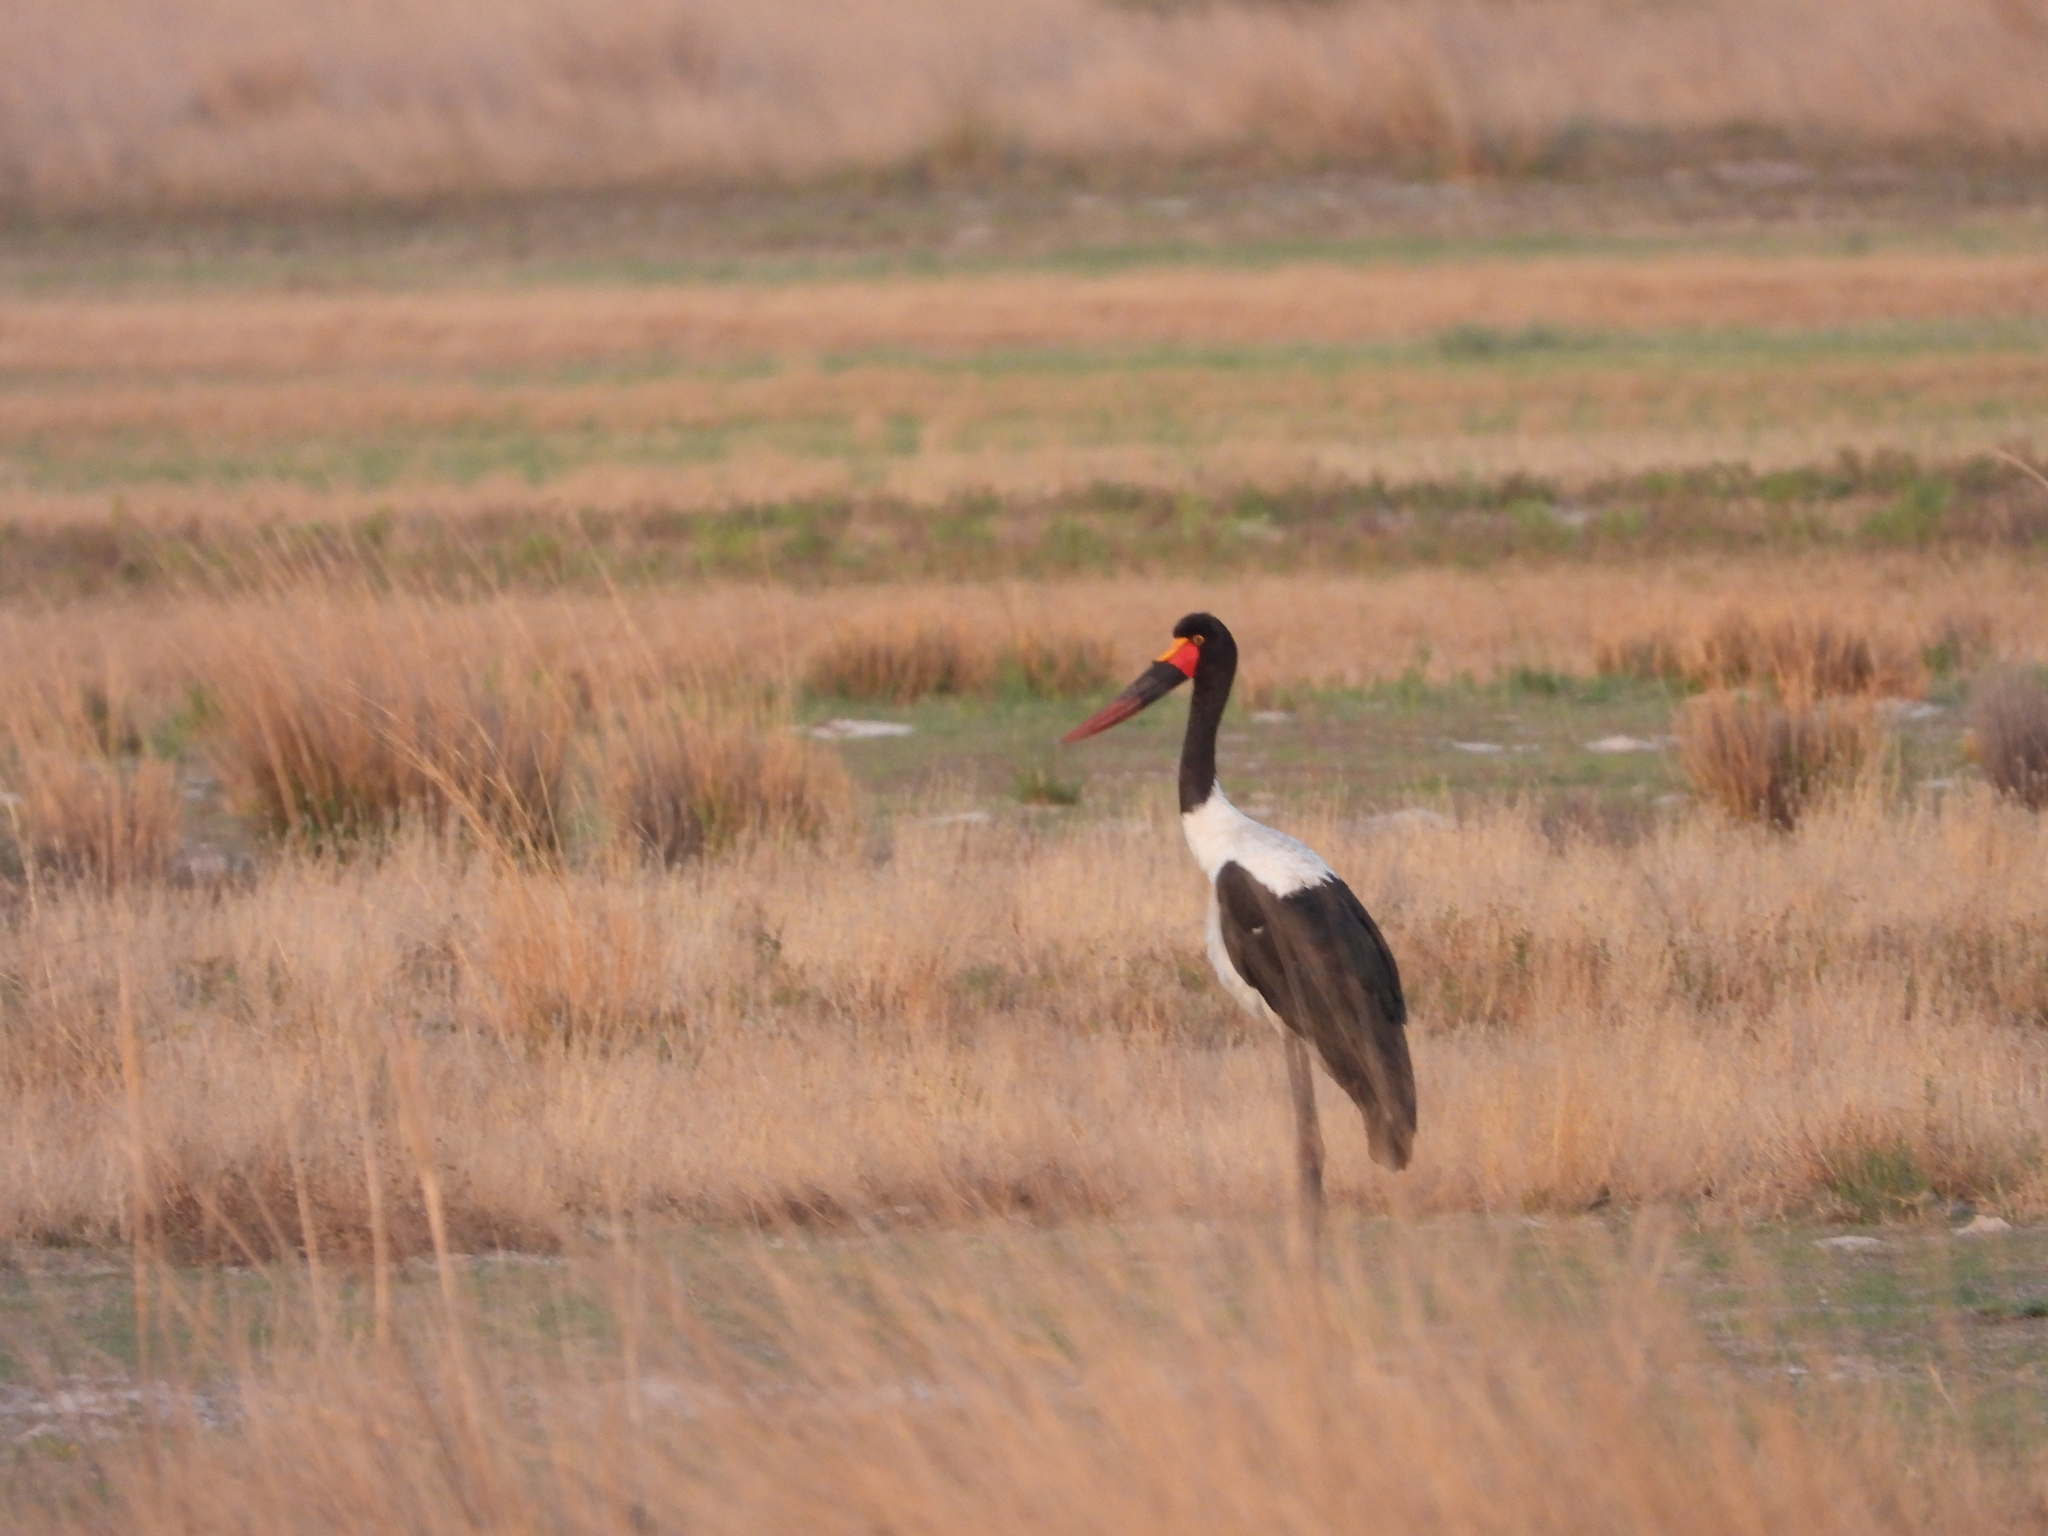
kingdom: Animalia
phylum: Chordata
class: Aves
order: Ciconiiformes
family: Ciconiidae
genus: Ephippiorhynchus
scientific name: Ephippiorhynchus senegalensis
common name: Saddle-billed stork
